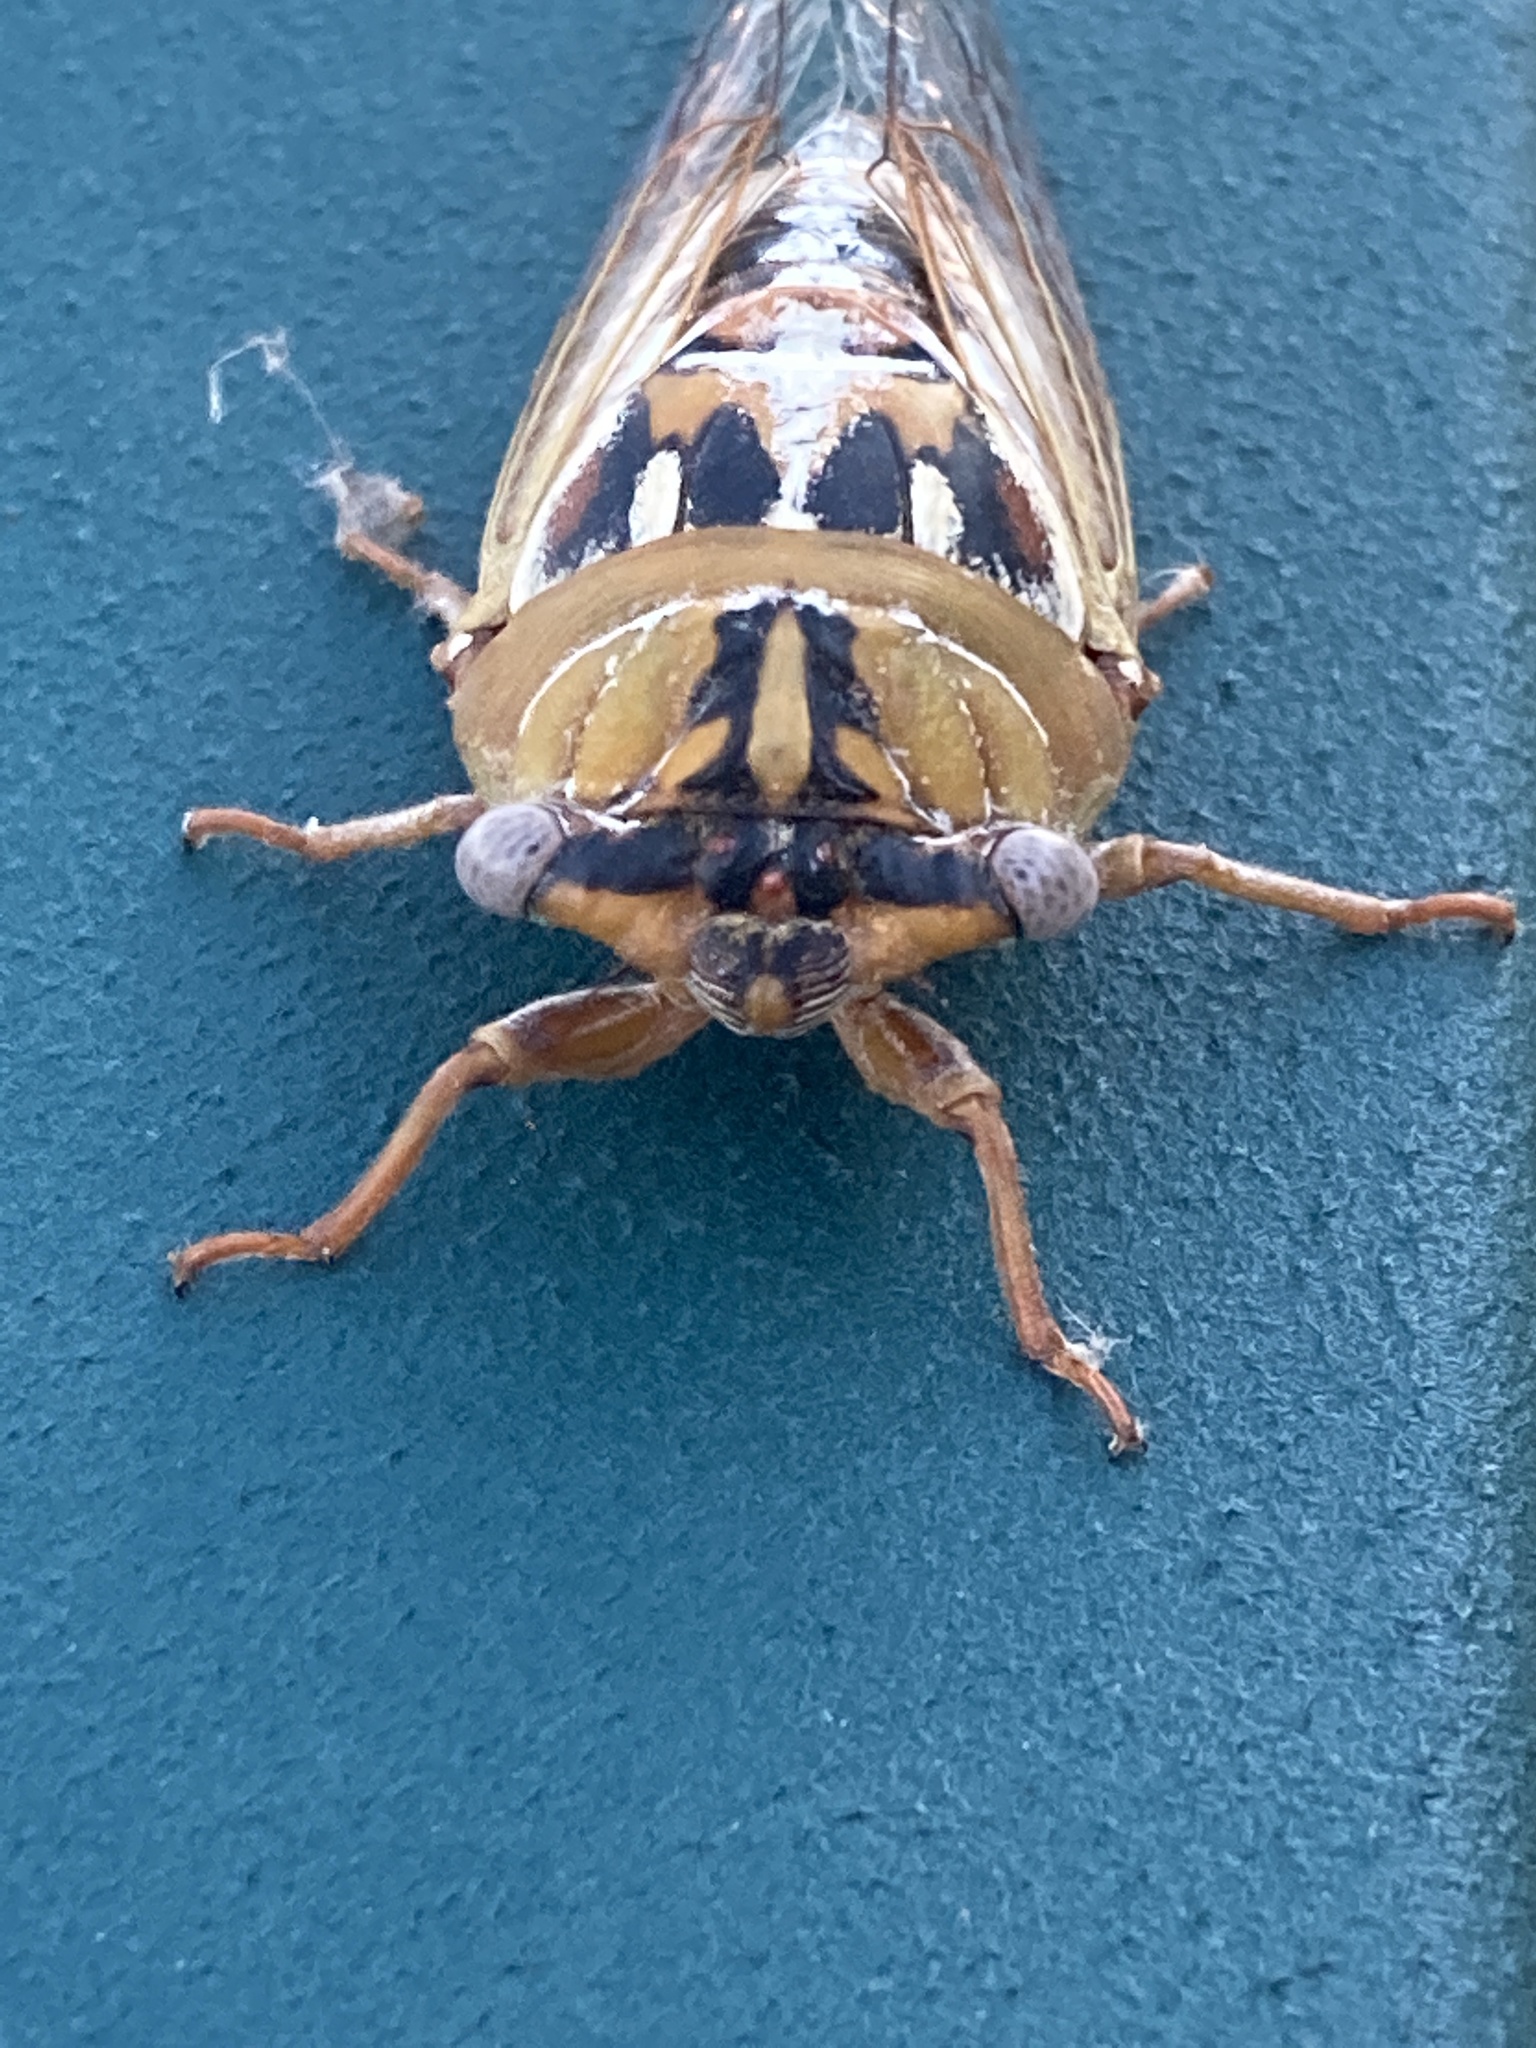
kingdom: Animalia
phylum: Arthropoda
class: Insecta
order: Hemiptera
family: Cicadidae
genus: Megatibicen
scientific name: Megatibicen dealbatus
